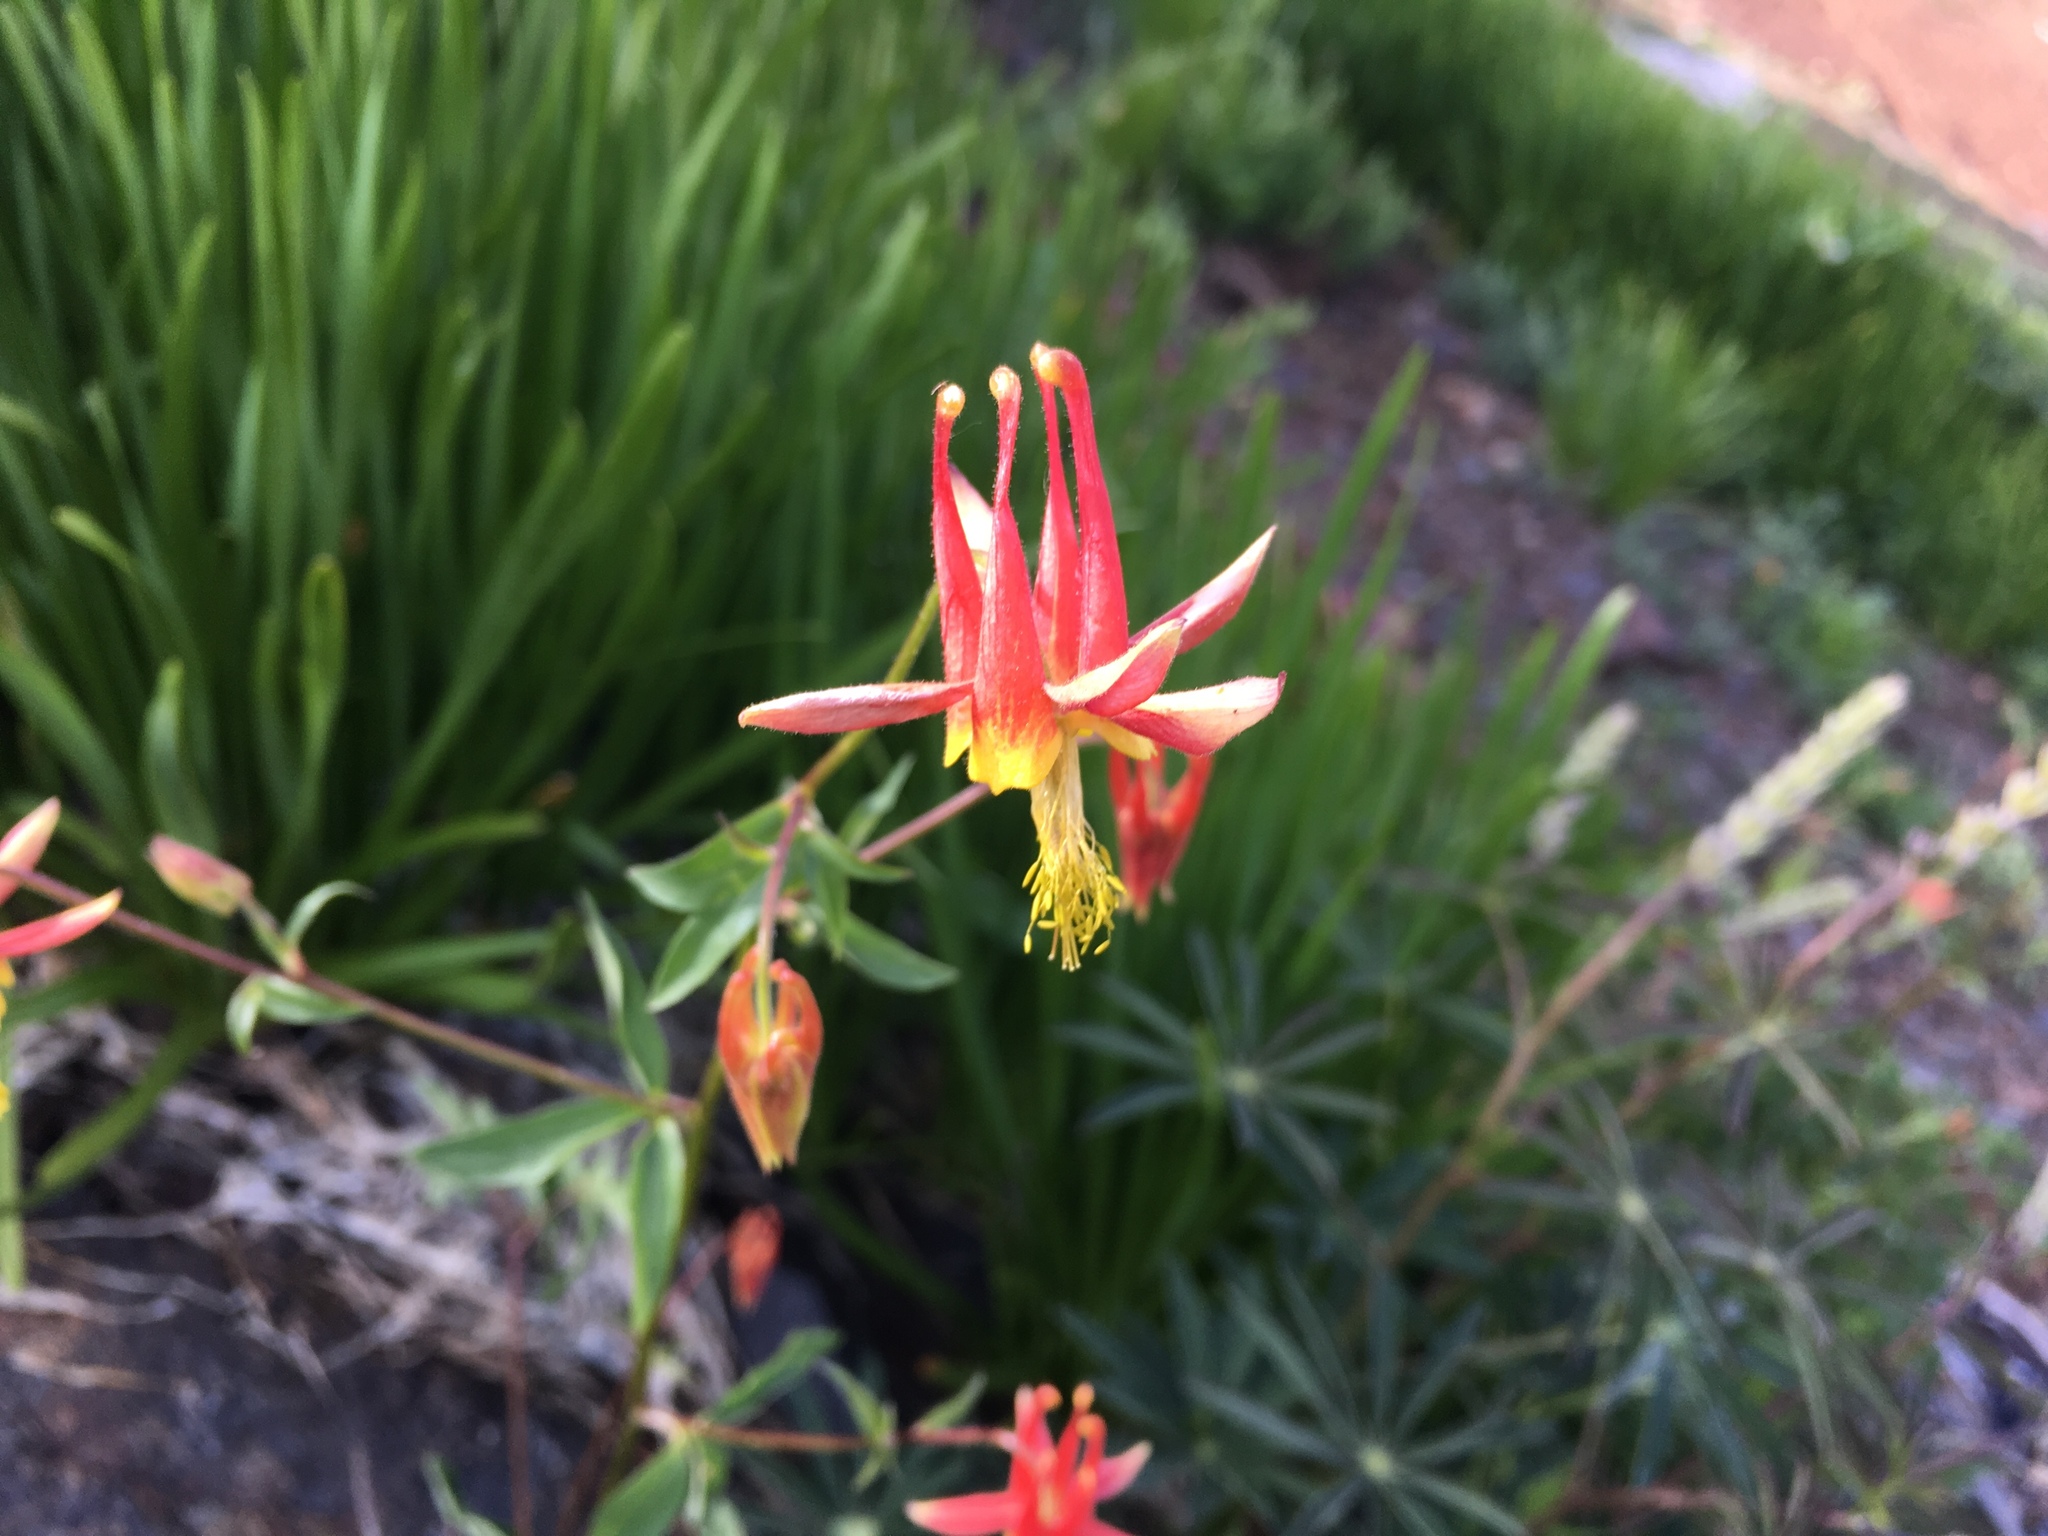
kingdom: Plantae
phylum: Tracheophyta
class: Magnoliopsida
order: Ranunculales
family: Ranunculaceae
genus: Aquilegia
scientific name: Aquilegia formosa
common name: Sitka columbine
